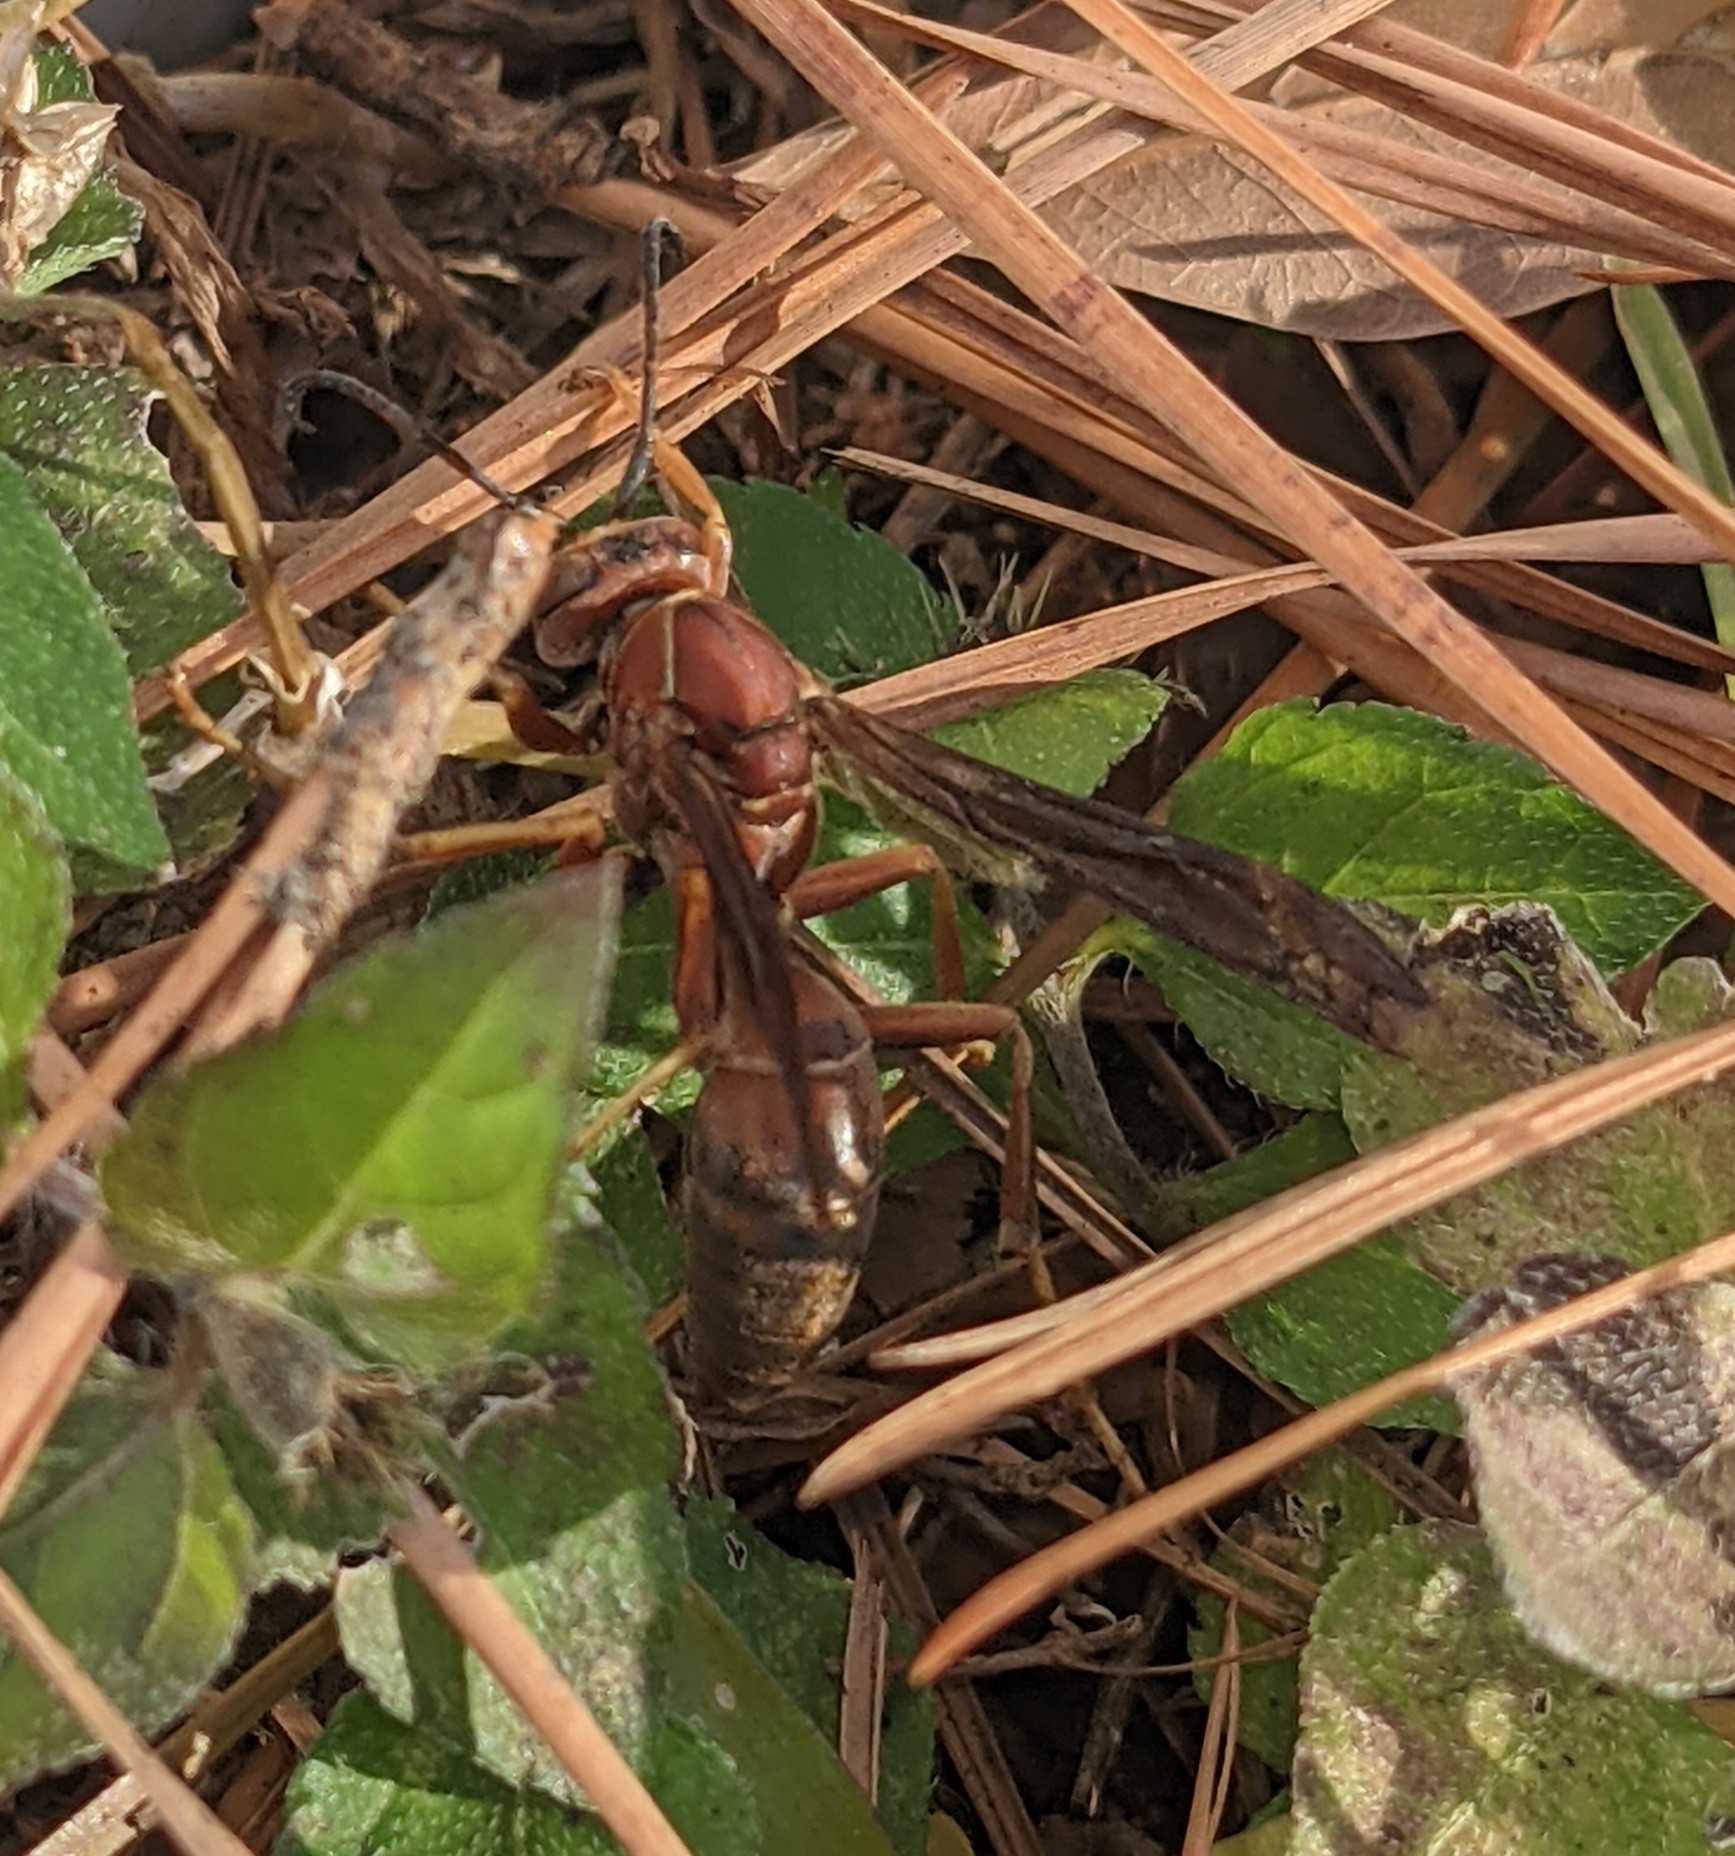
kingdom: Animalia
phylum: Arthropoda
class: Insecta
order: Hymenoptera
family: Vespidae
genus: Fuscopolistes
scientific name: Fuscopolistes
